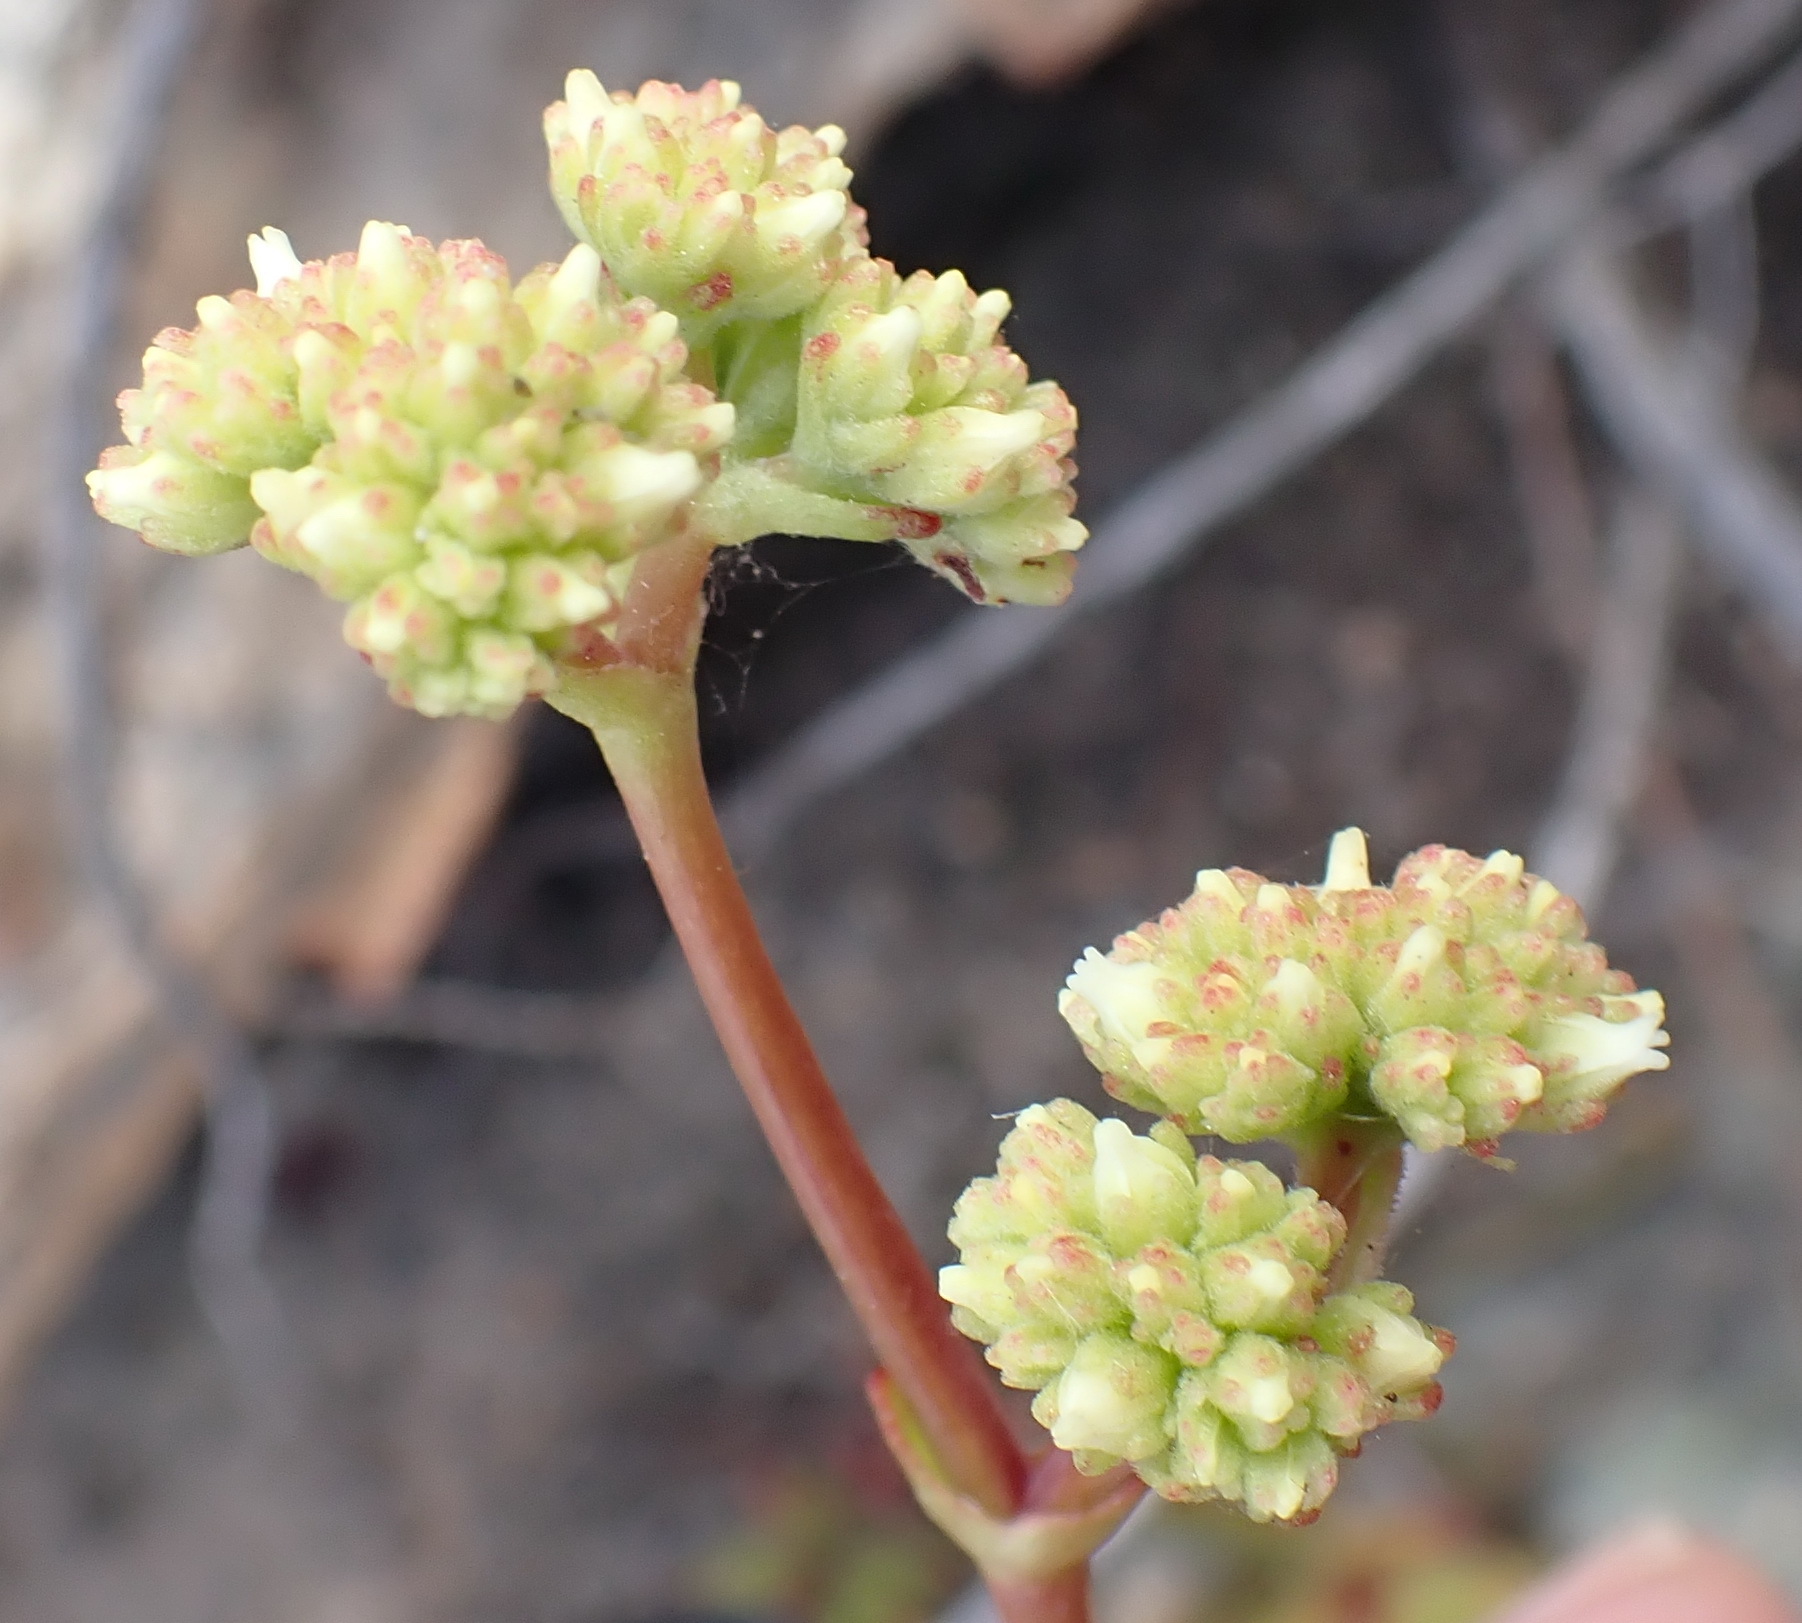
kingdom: Plantae
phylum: Tracheophyta
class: Magnoliopsida
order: Saxifragales
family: Crassulaceae
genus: Crassula
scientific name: Crassula atropurpurea
